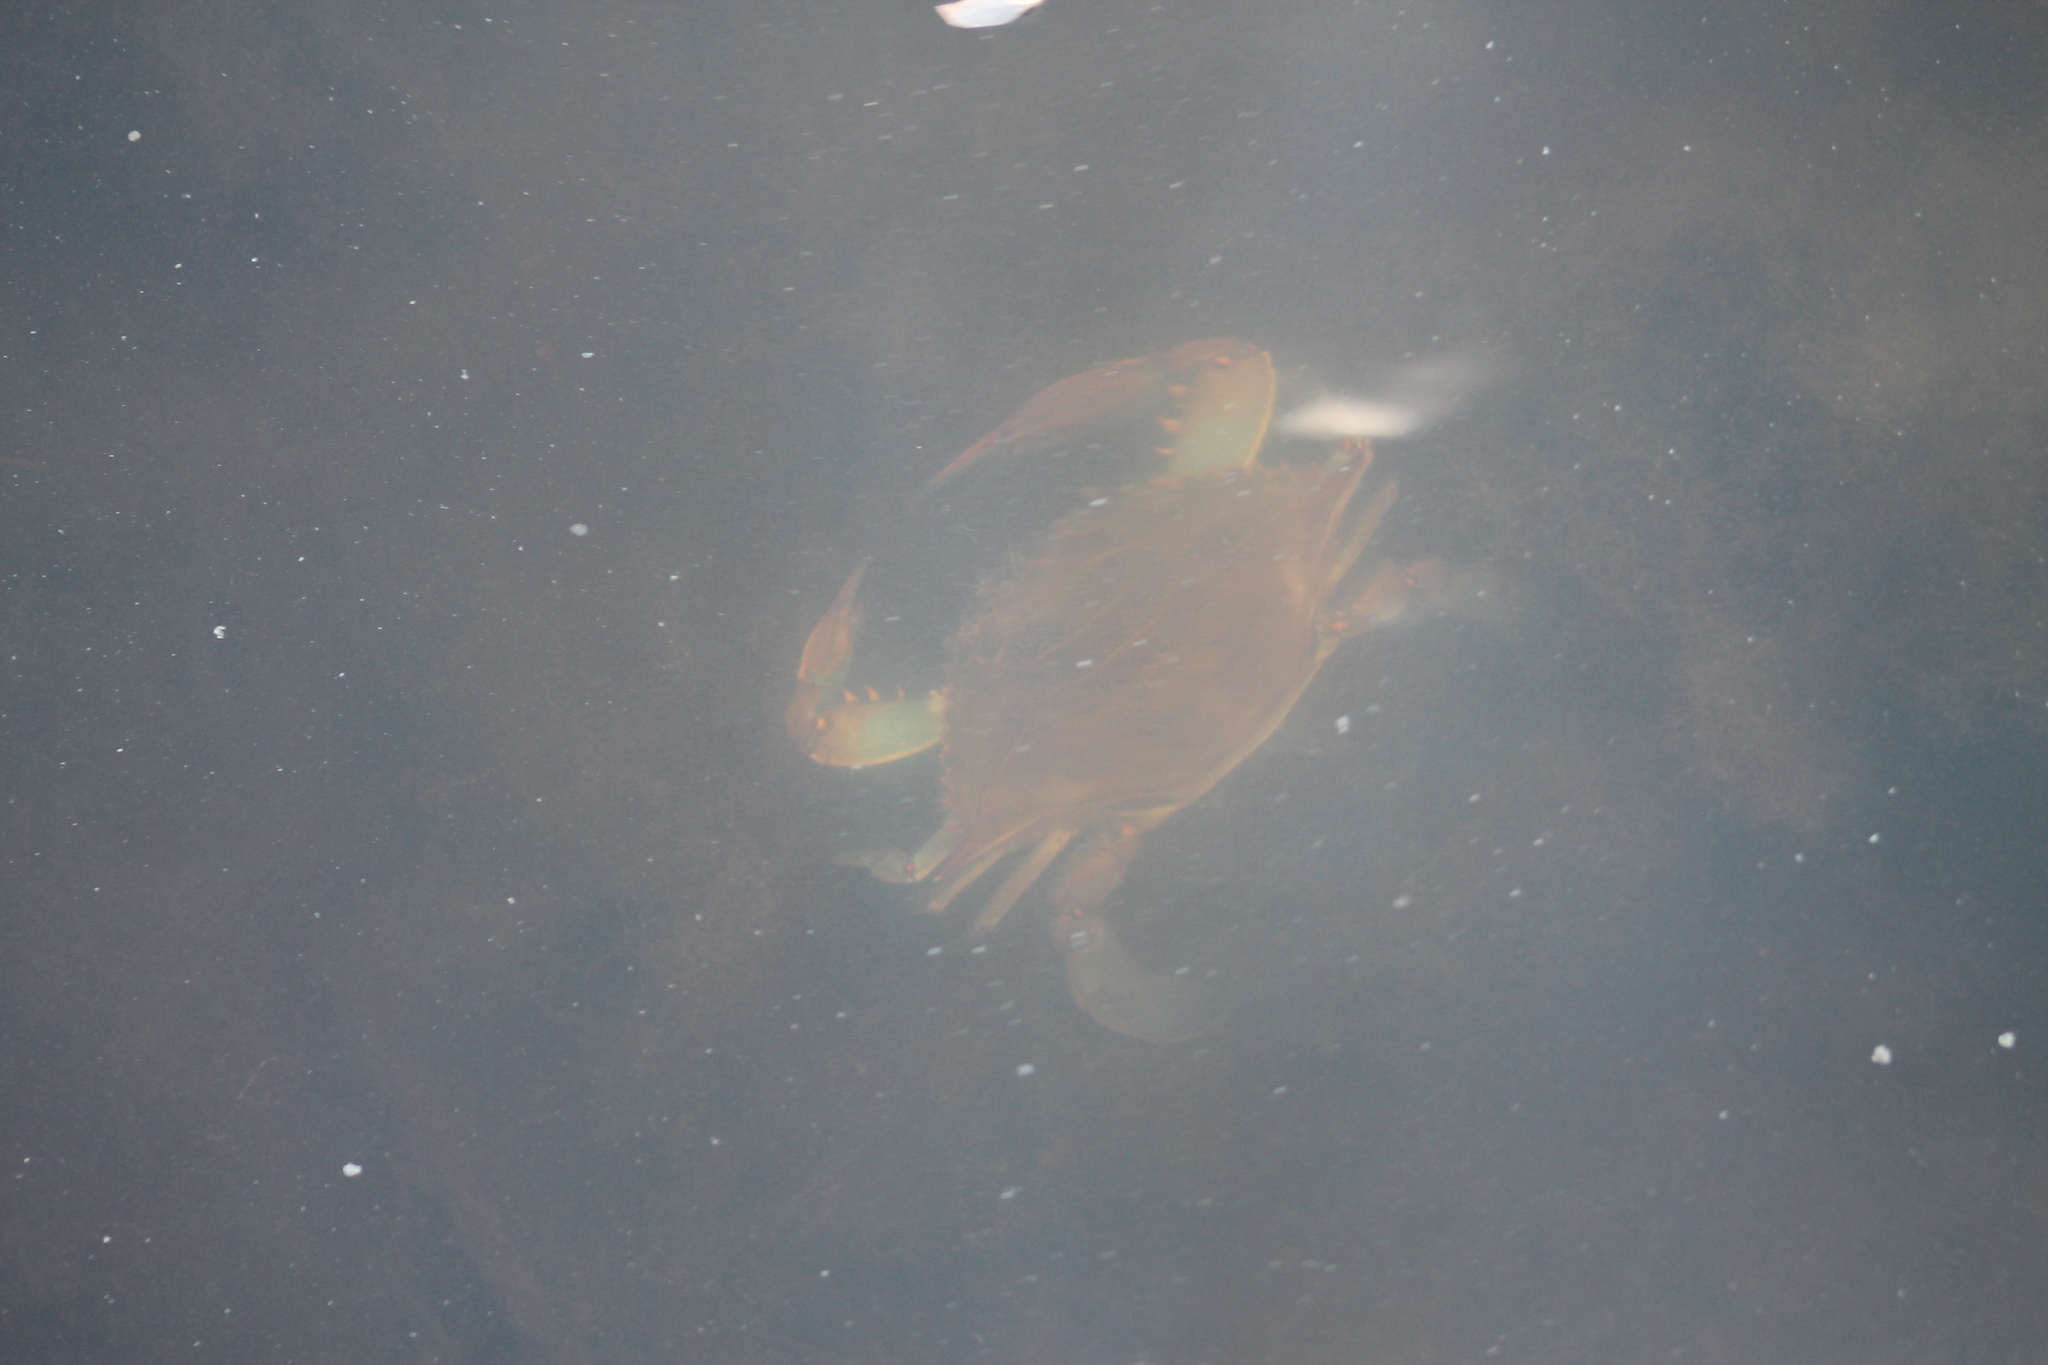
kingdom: Animalia
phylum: Arthropoda
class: Malacostraca
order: Decapoda
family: Portunidae
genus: Callinectes
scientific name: Callinectes sapidus
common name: Blue crab
